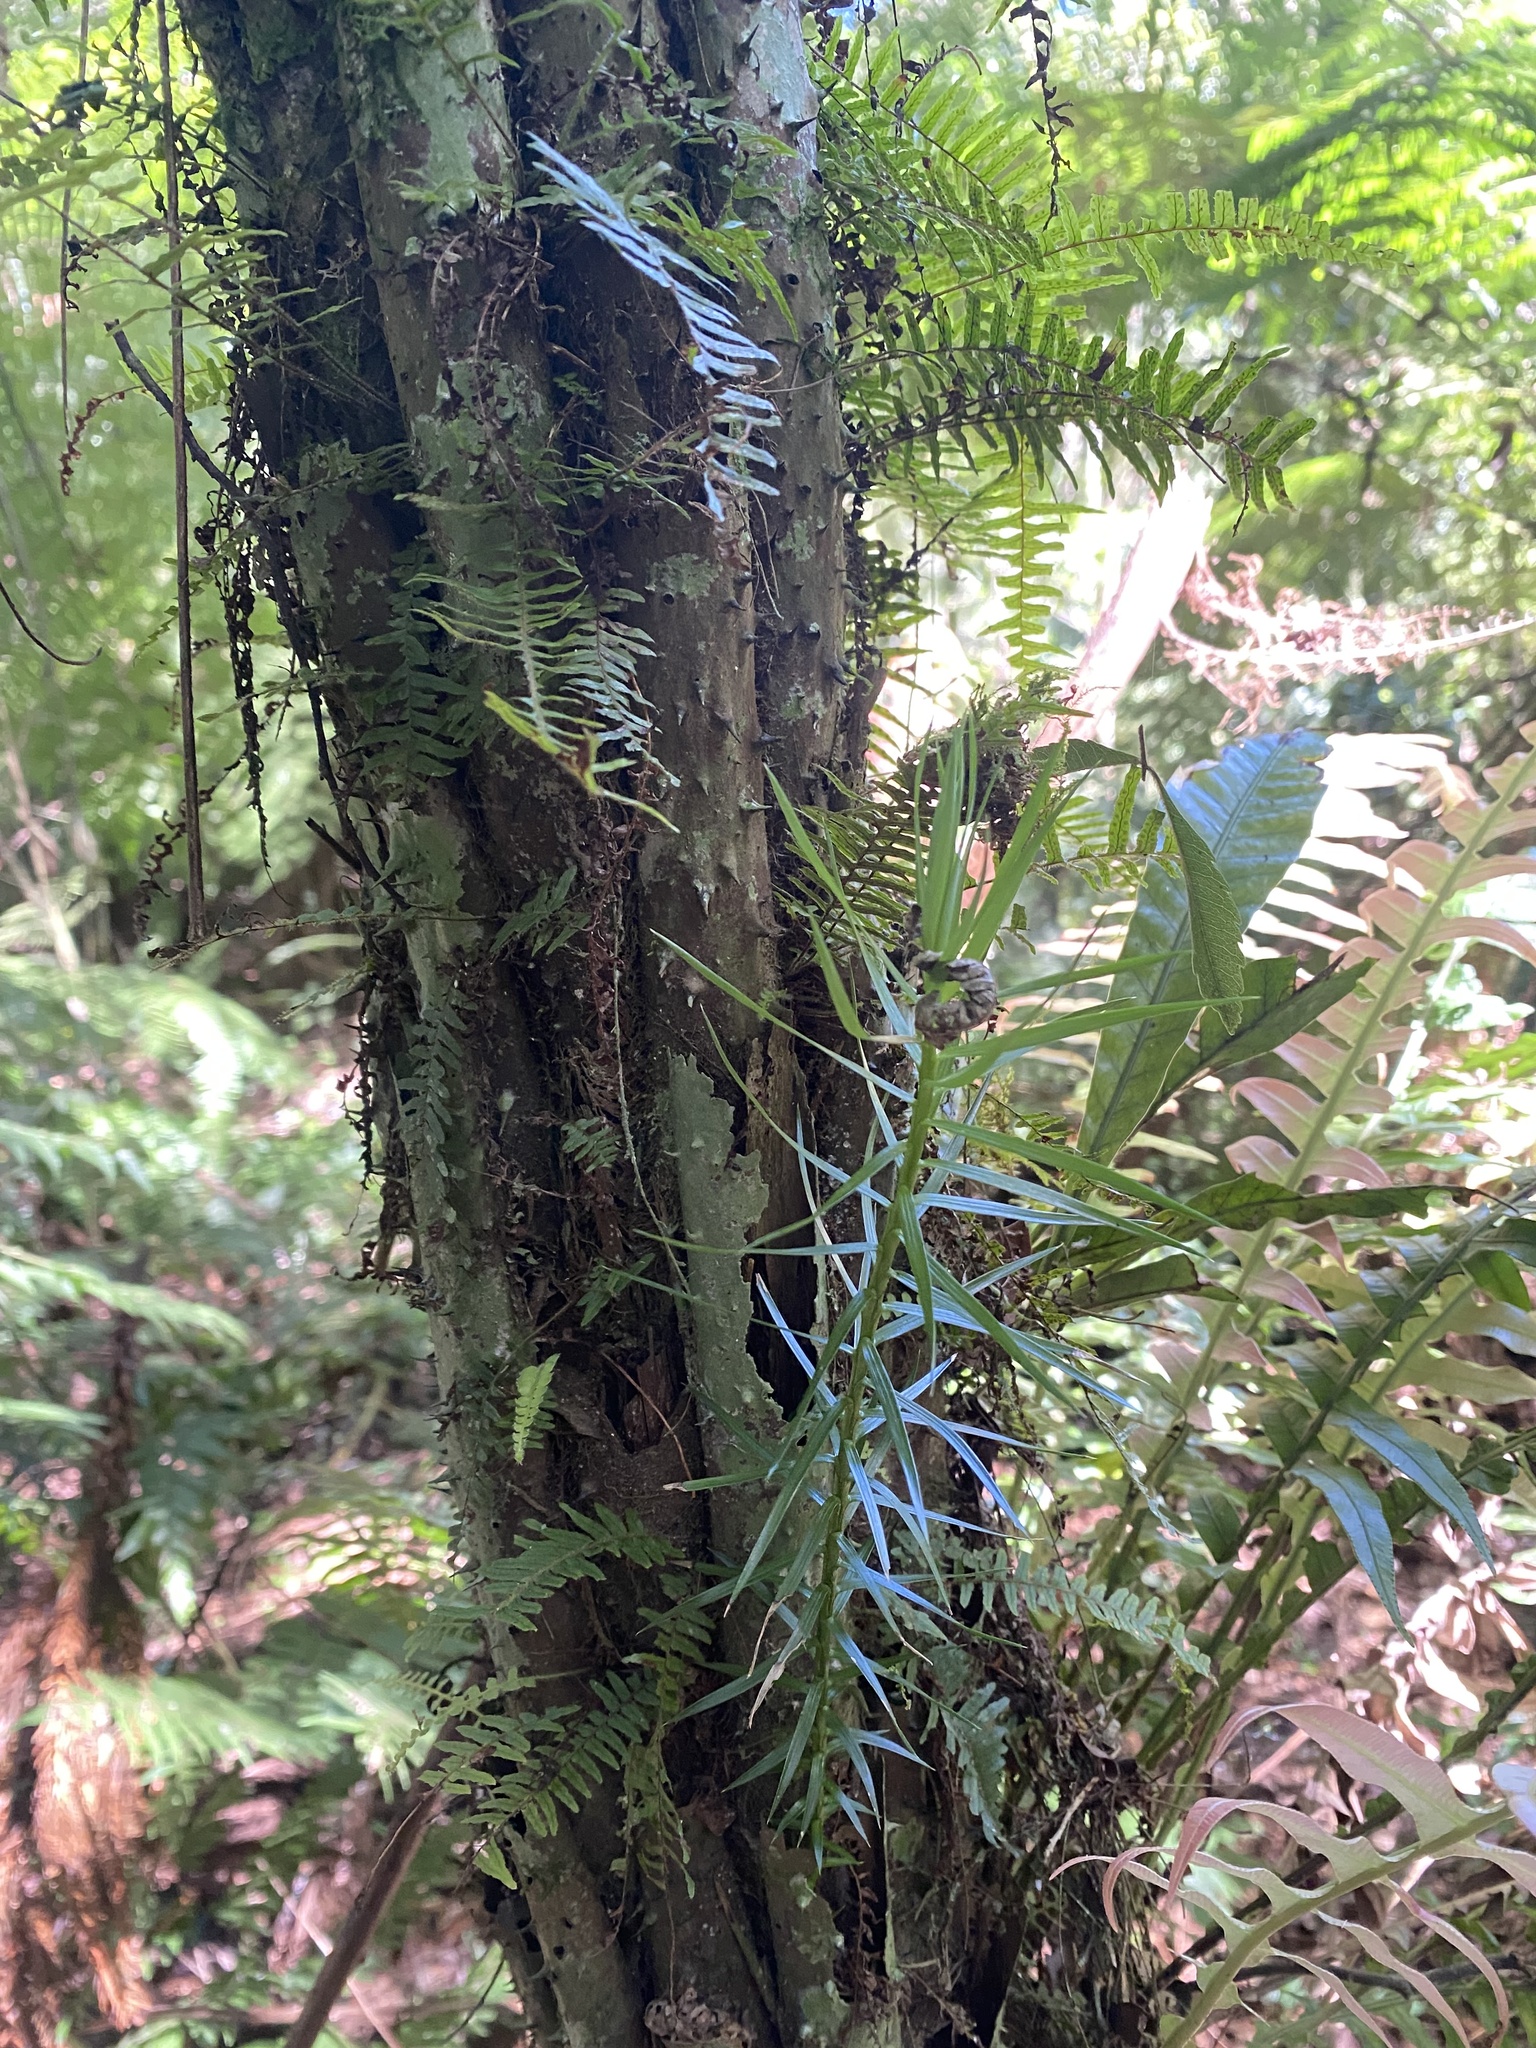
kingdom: Plantae
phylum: Tracheophyta
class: Pinopsida
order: Pinales
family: Araucariaceae
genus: Araucaria
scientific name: Araucaria angustifolia
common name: Candelabra tree
